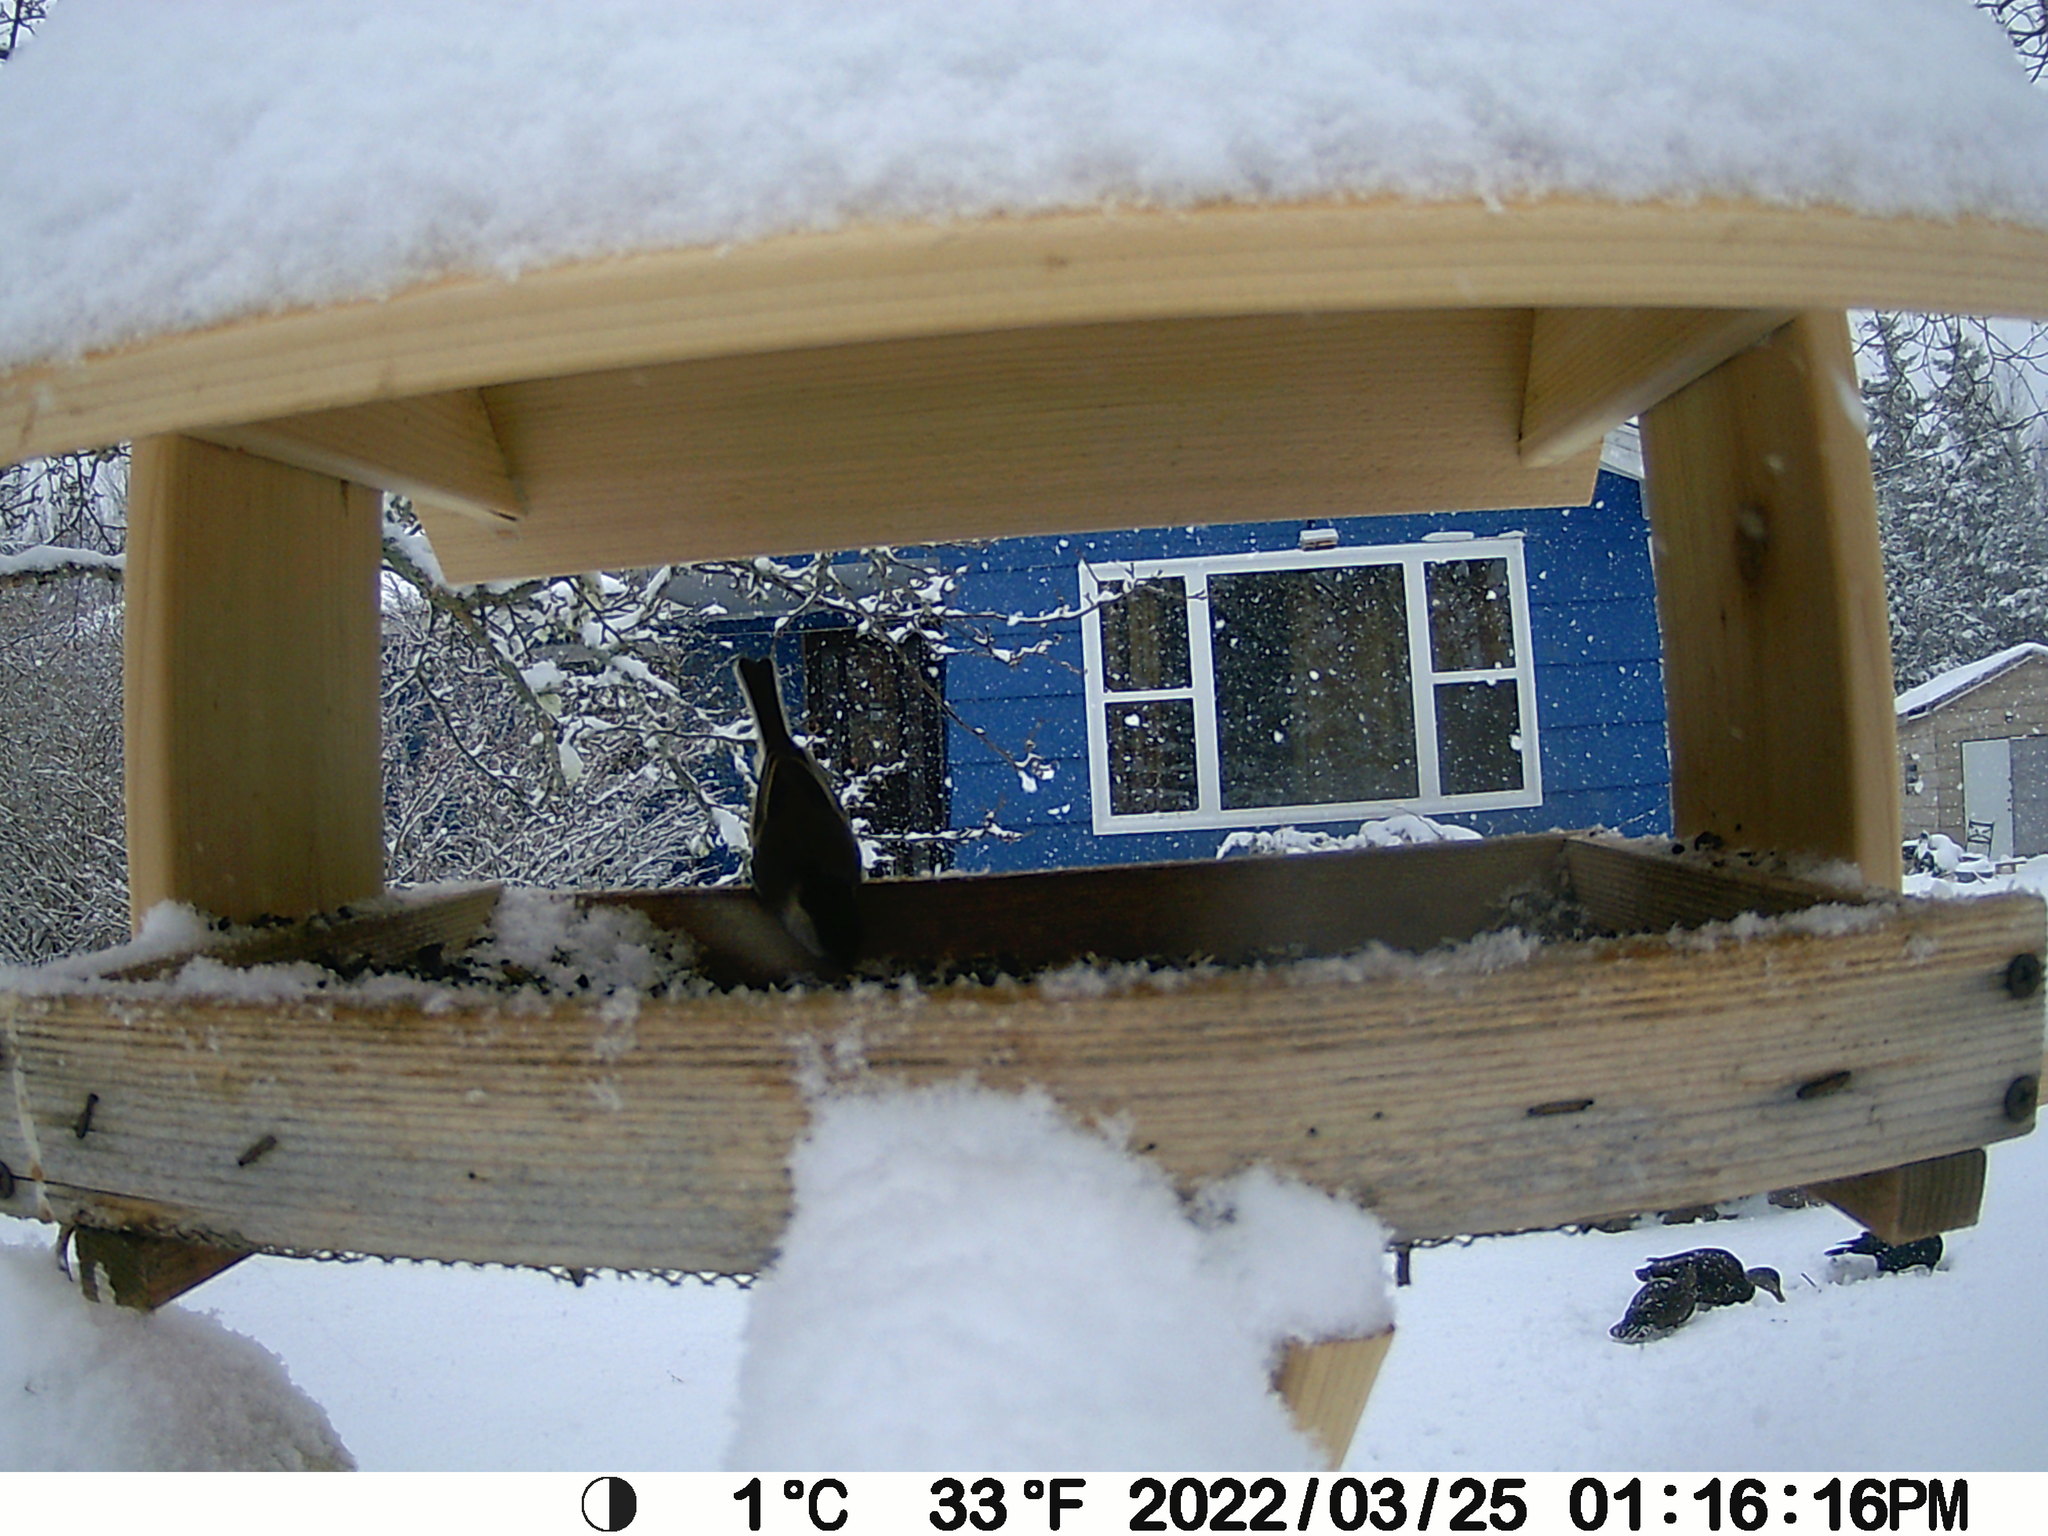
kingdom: Animalia
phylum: Chordata
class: Aves
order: Anseriformes
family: Anatidae
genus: Anas
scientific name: Anas rubripes
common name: American black duck
